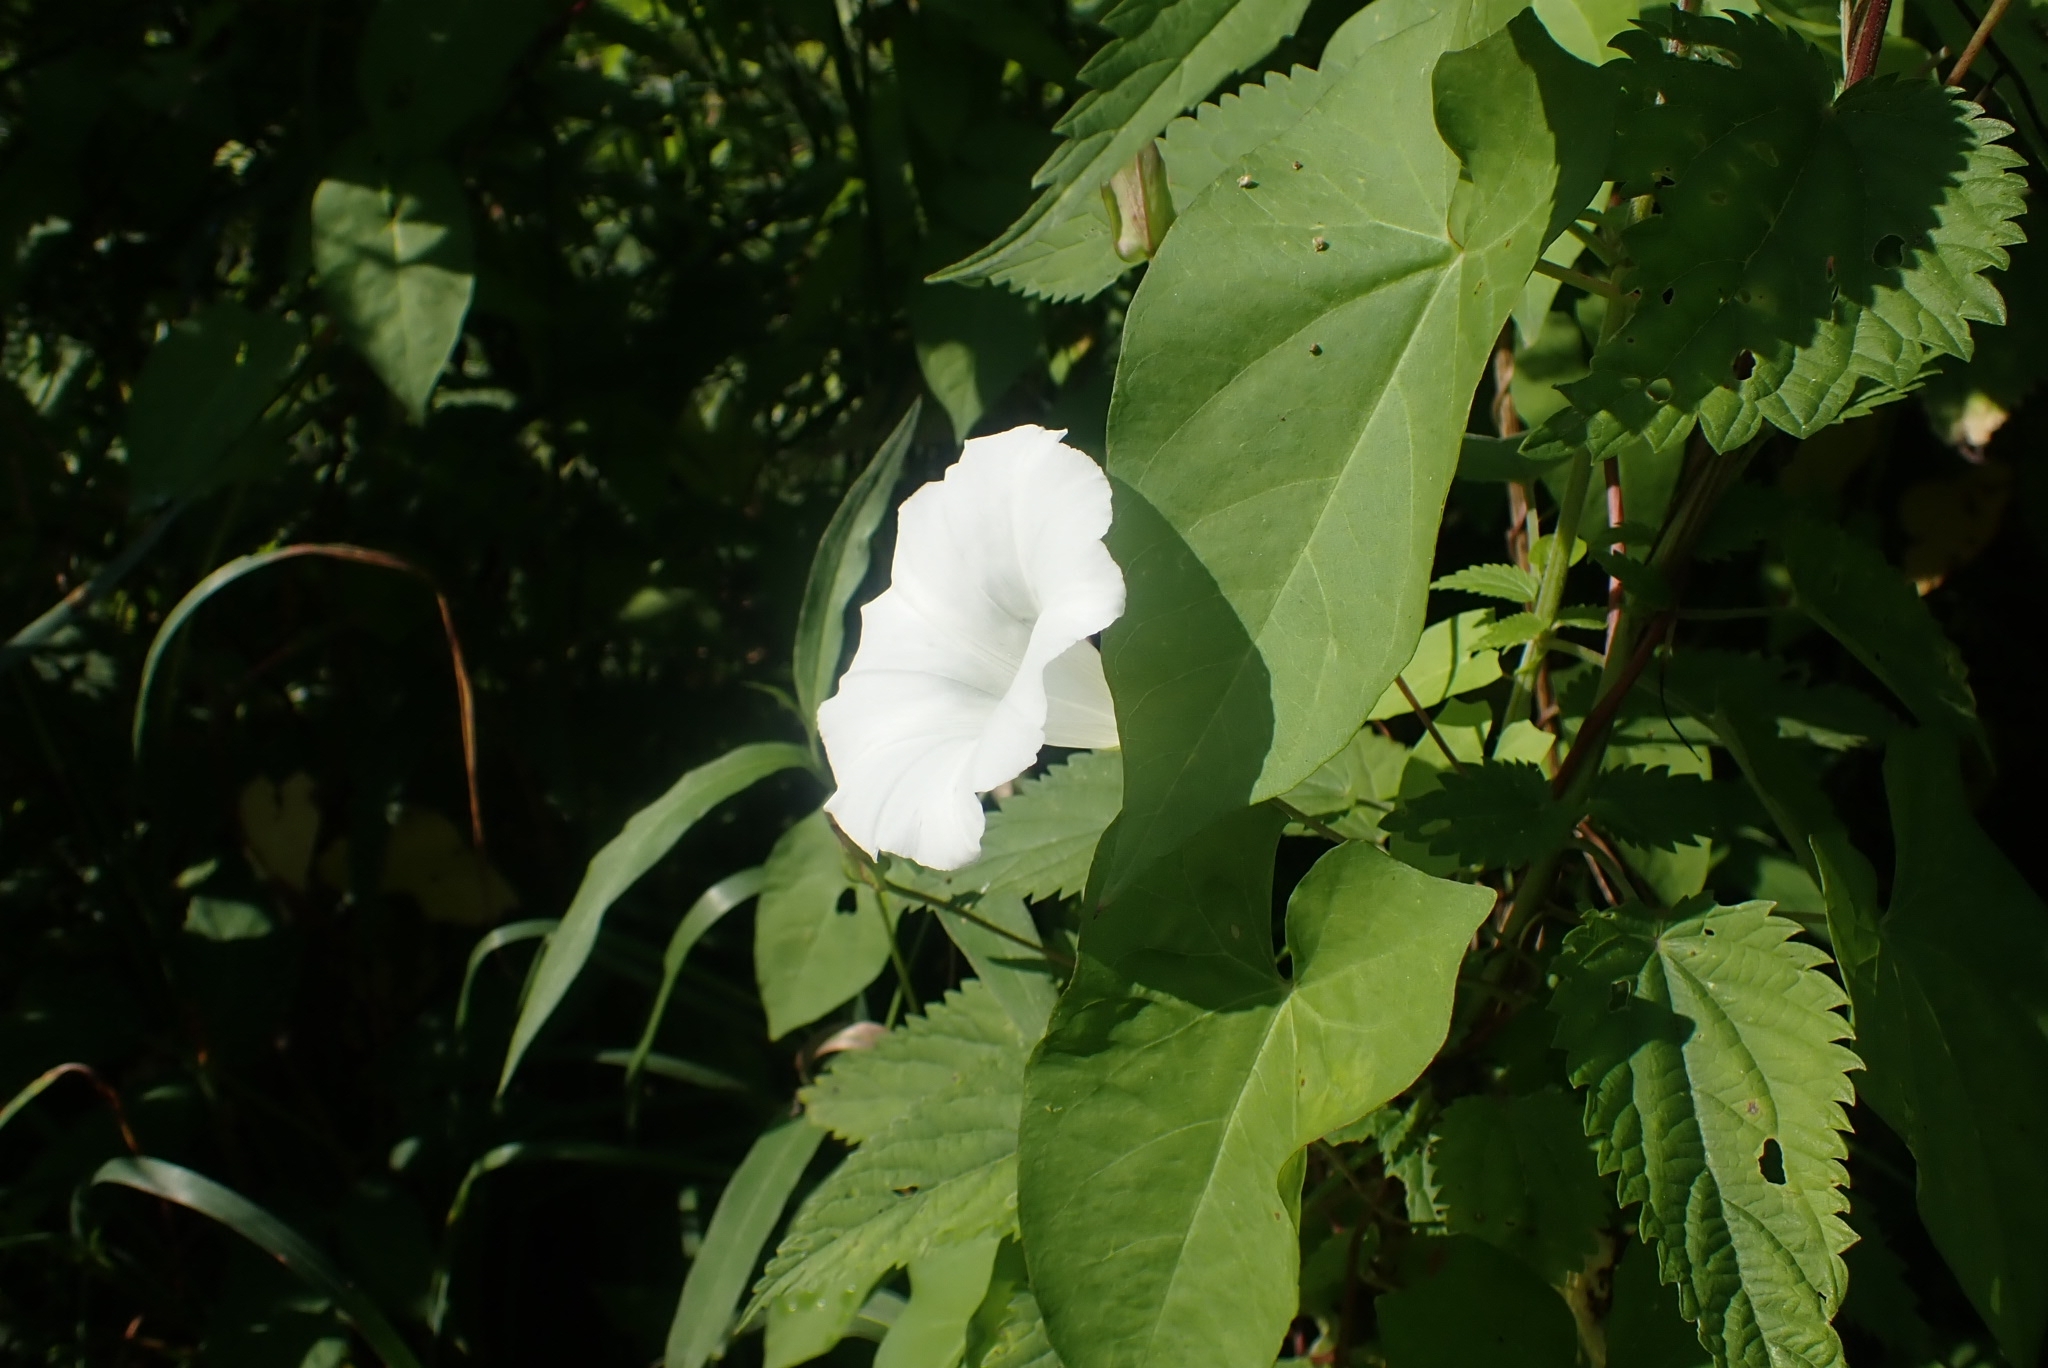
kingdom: Plantae
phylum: Tracheophyta
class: Magnoliopsida
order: Solanales
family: Convolvulaceae
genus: Calystegia
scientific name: Calystegia sepium
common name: Hedge bindweed
